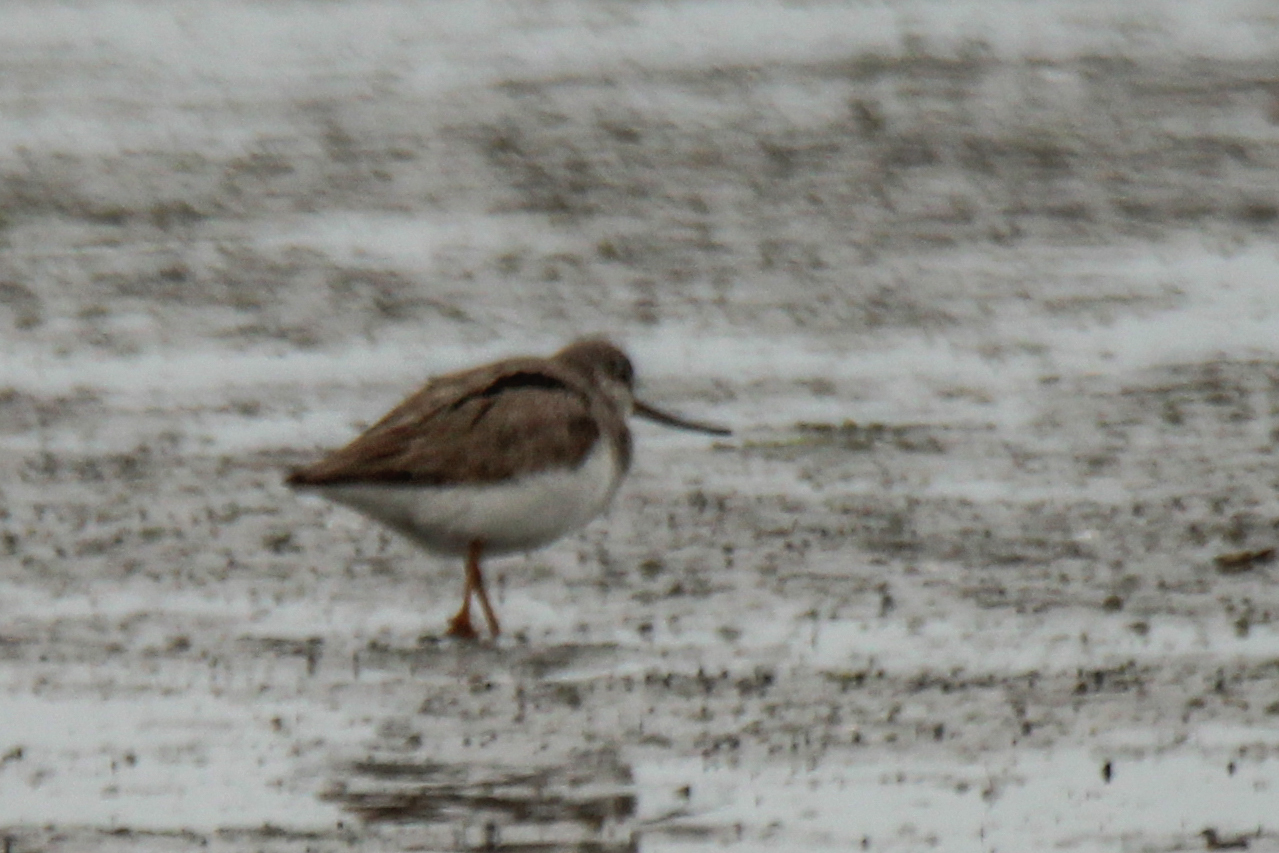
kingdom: Animalia
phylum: Chordata
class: Aves
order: Charadriiformes
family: Scolopacidae
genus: Xenus
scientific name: Xenus cinereus
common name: Terek sandpiper
